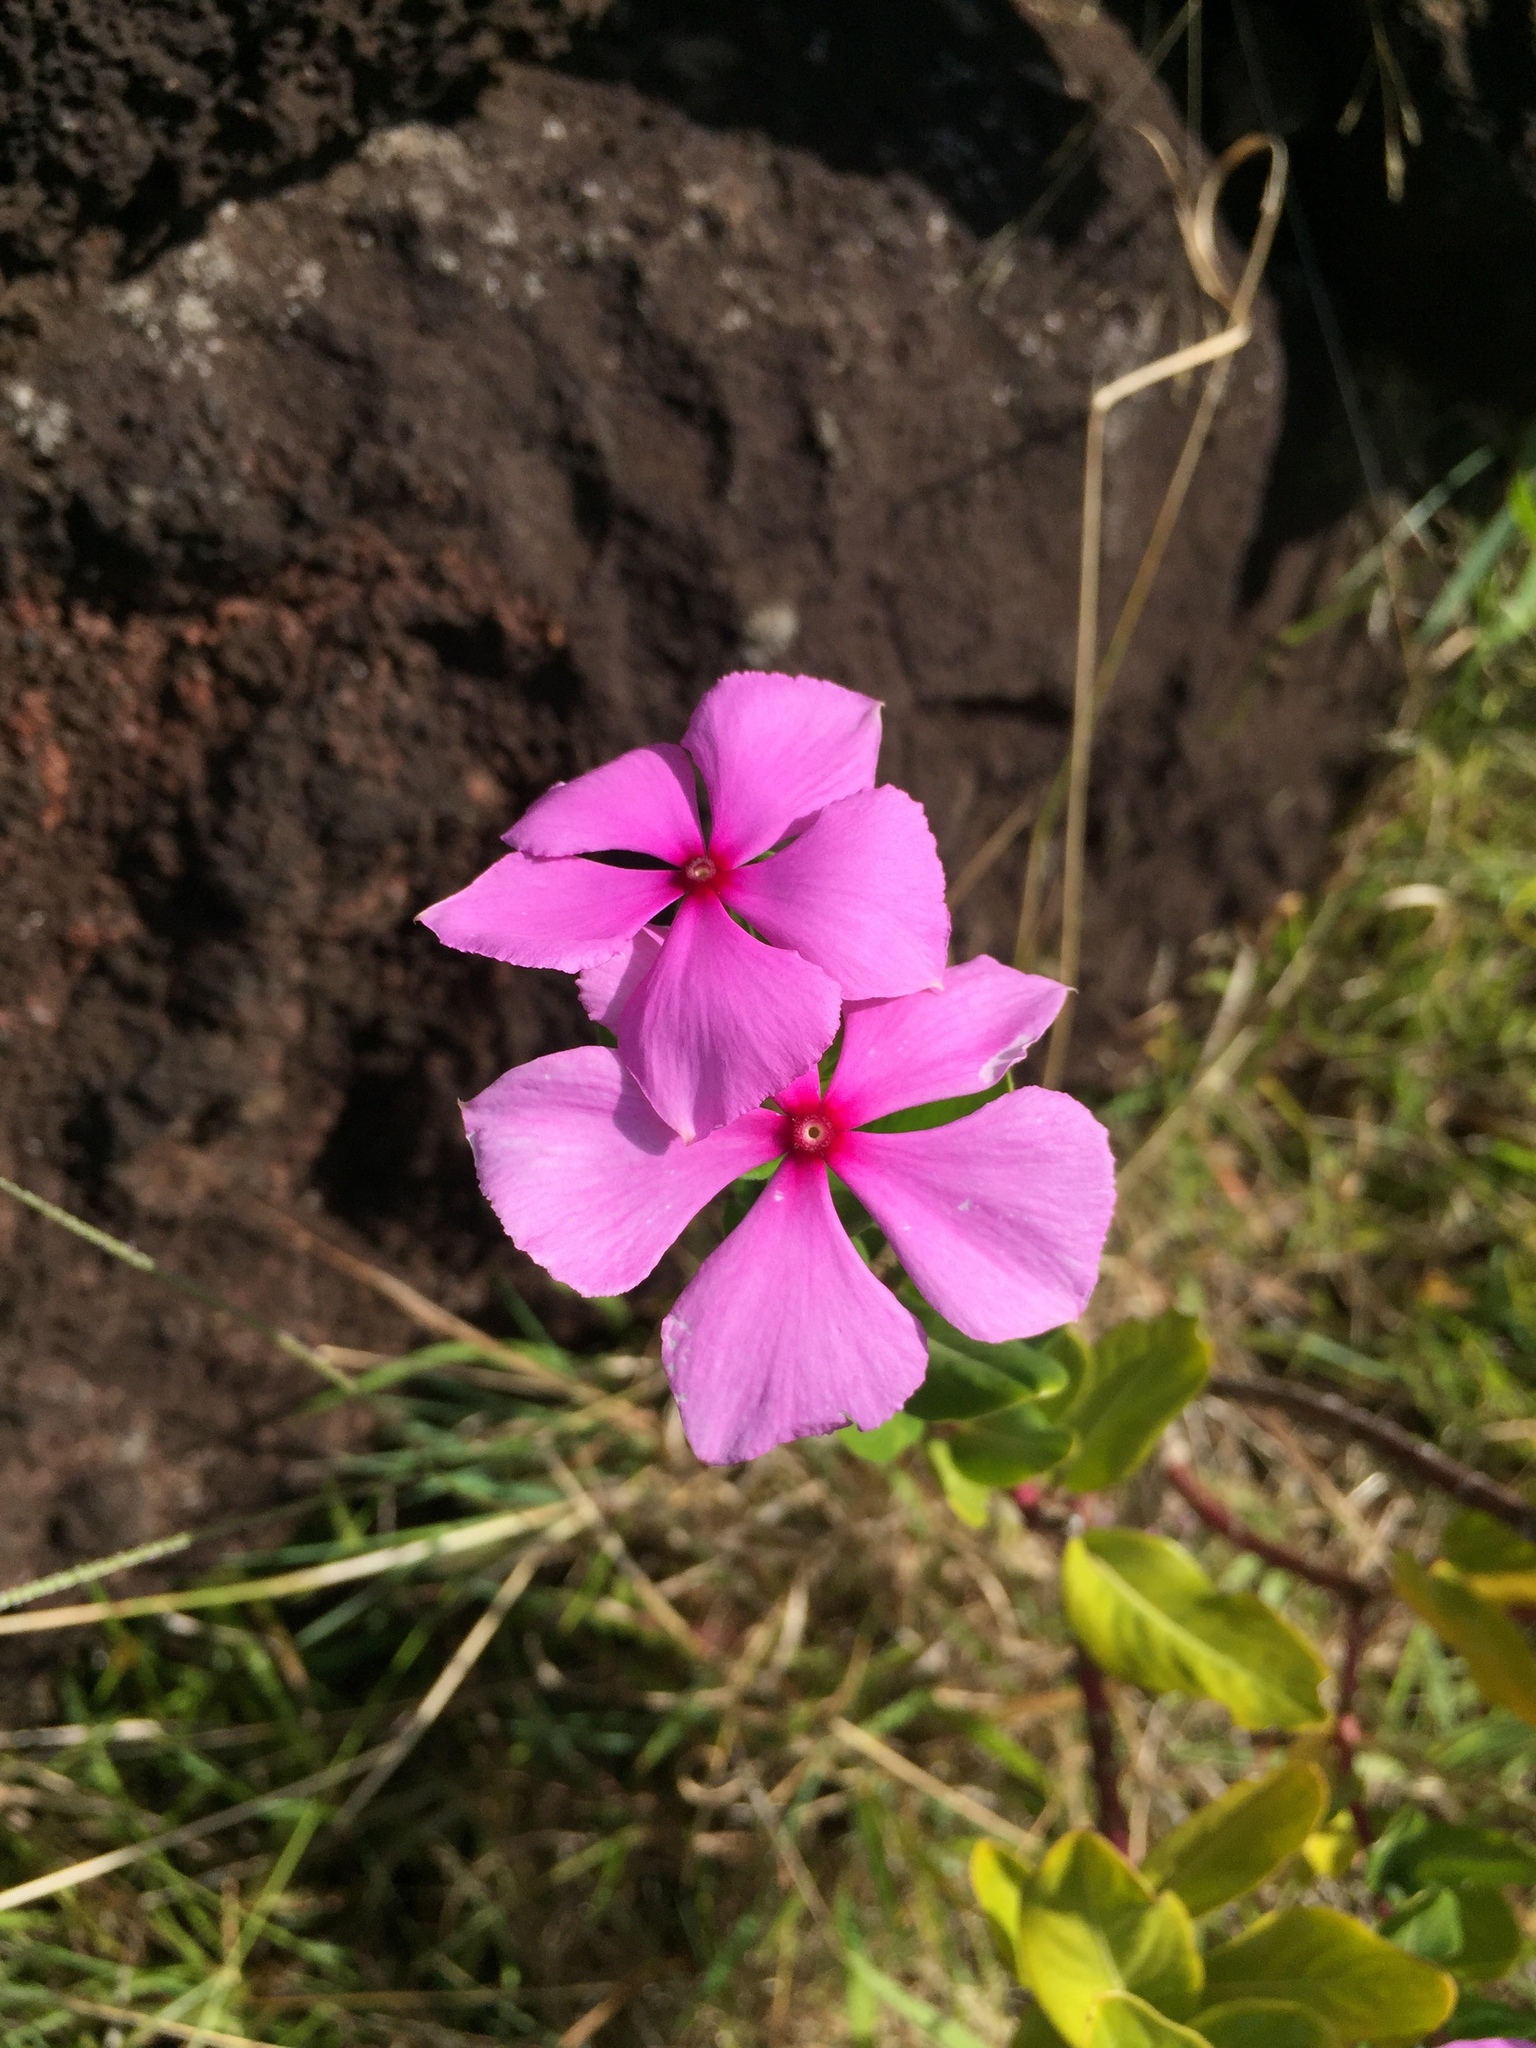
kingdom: Plantae
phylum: Tracheophyta
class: Magnoliopsida
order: Gentianales
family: Apocynaceae
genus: Catharanthus
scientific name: Catharanthus roseus
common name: Madagascar periwinkle
